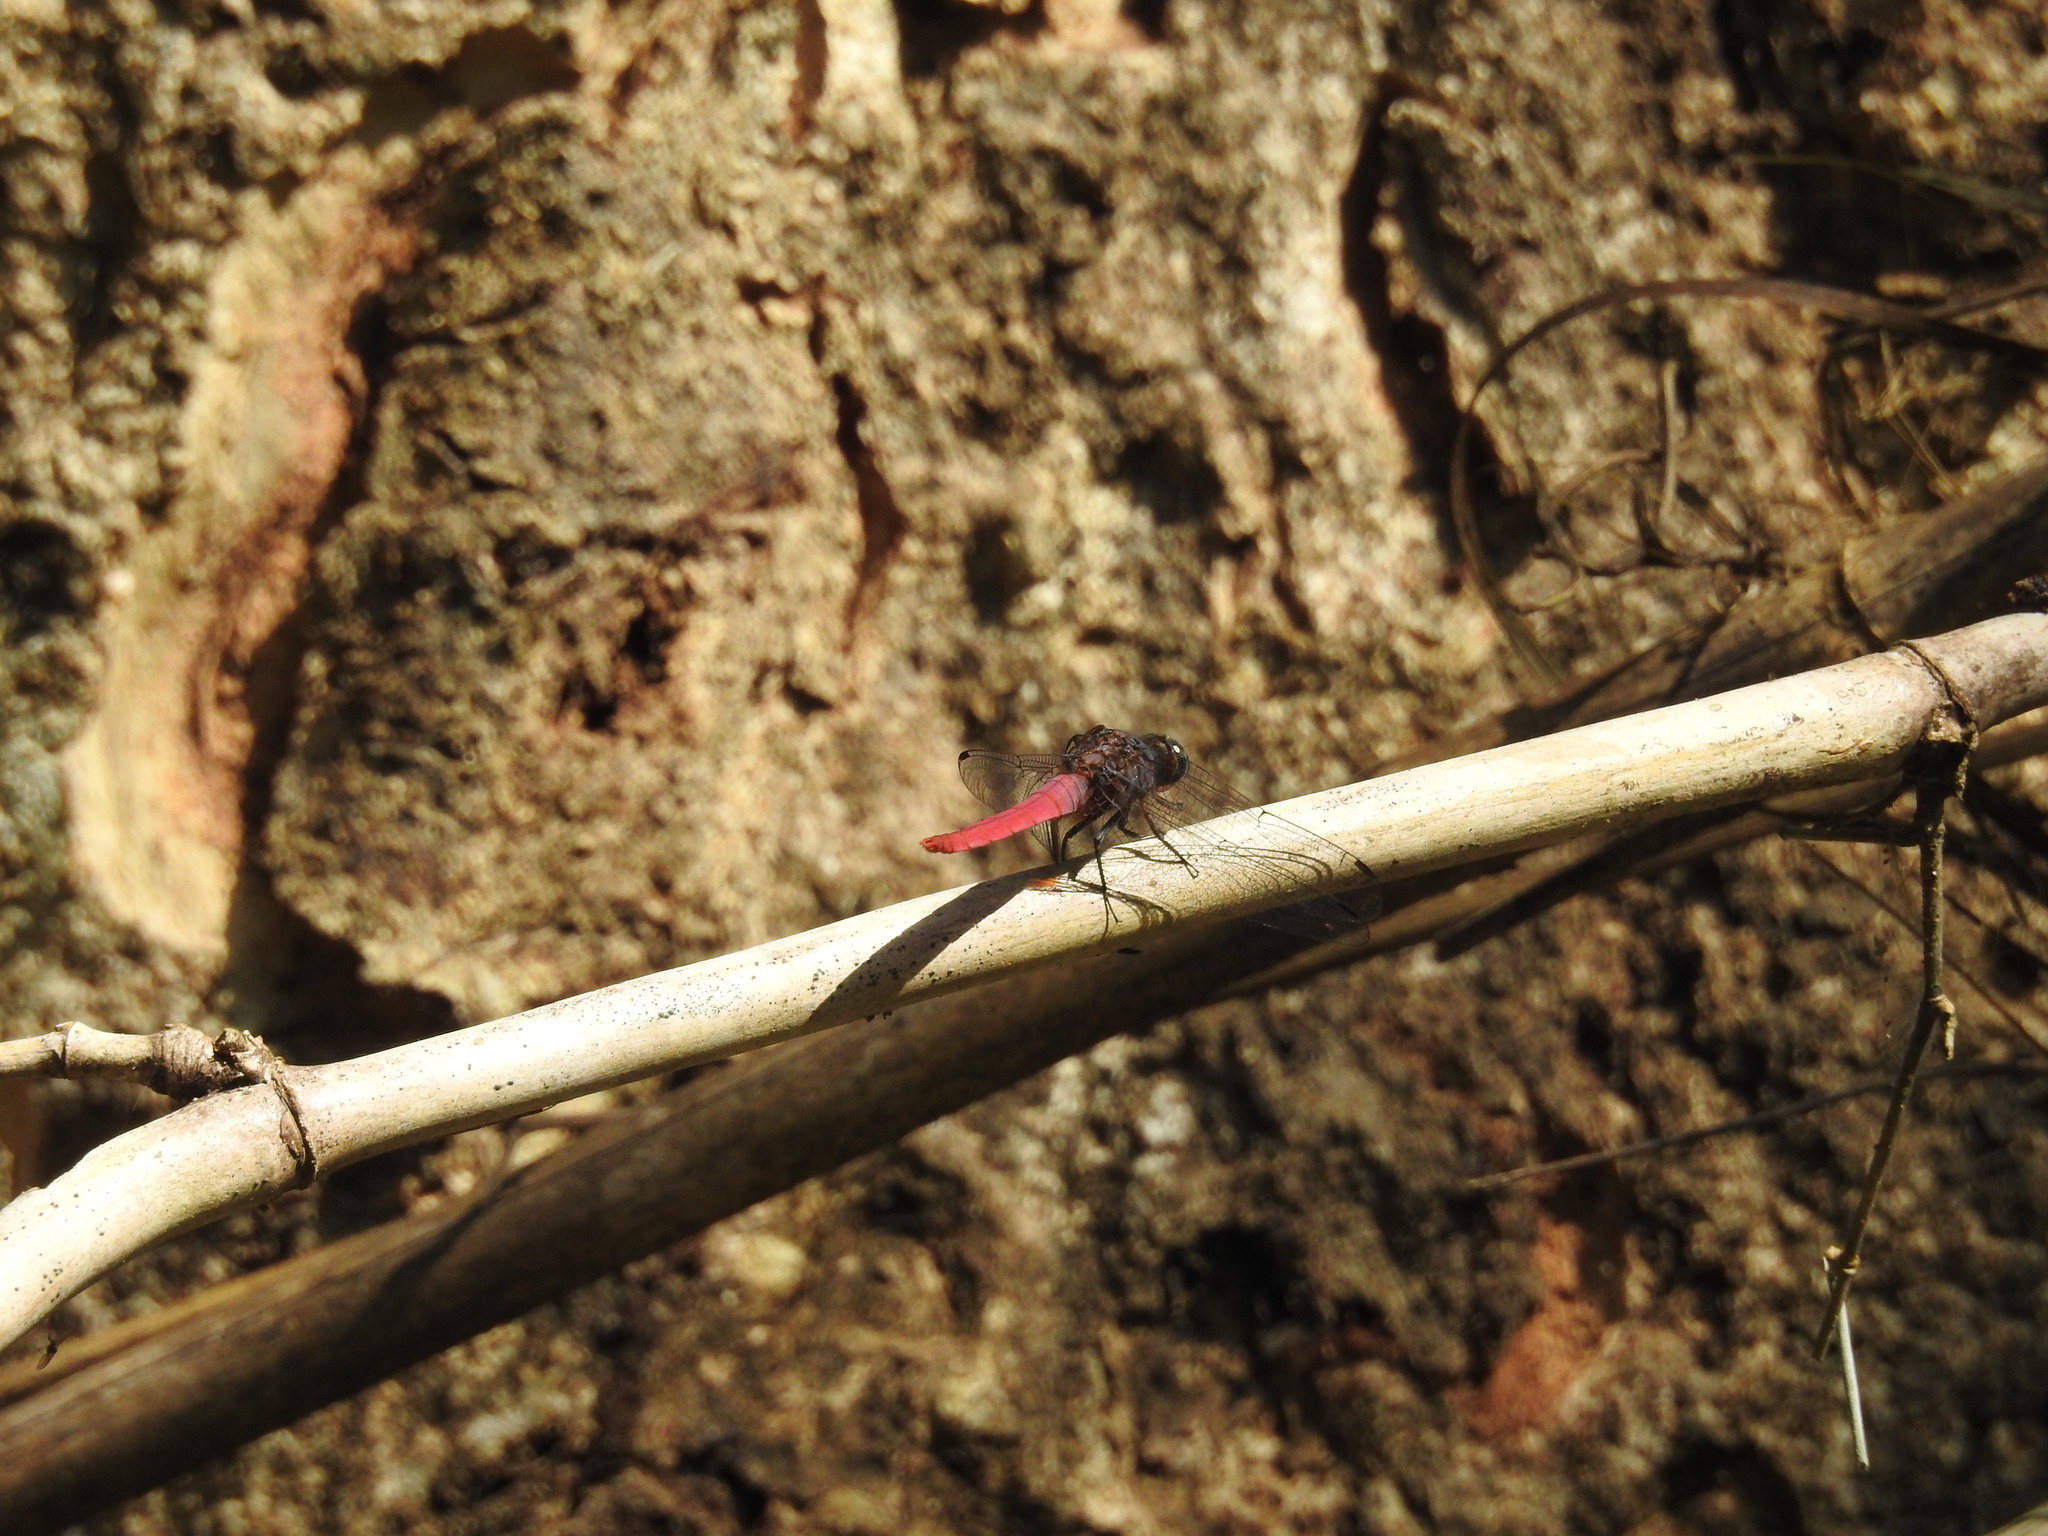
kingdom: Animalia
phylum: Arthropoda
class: Insecta
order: Odonata
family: Libellulidae
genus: Orthetrum
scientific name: Orthetrum pruinosum
